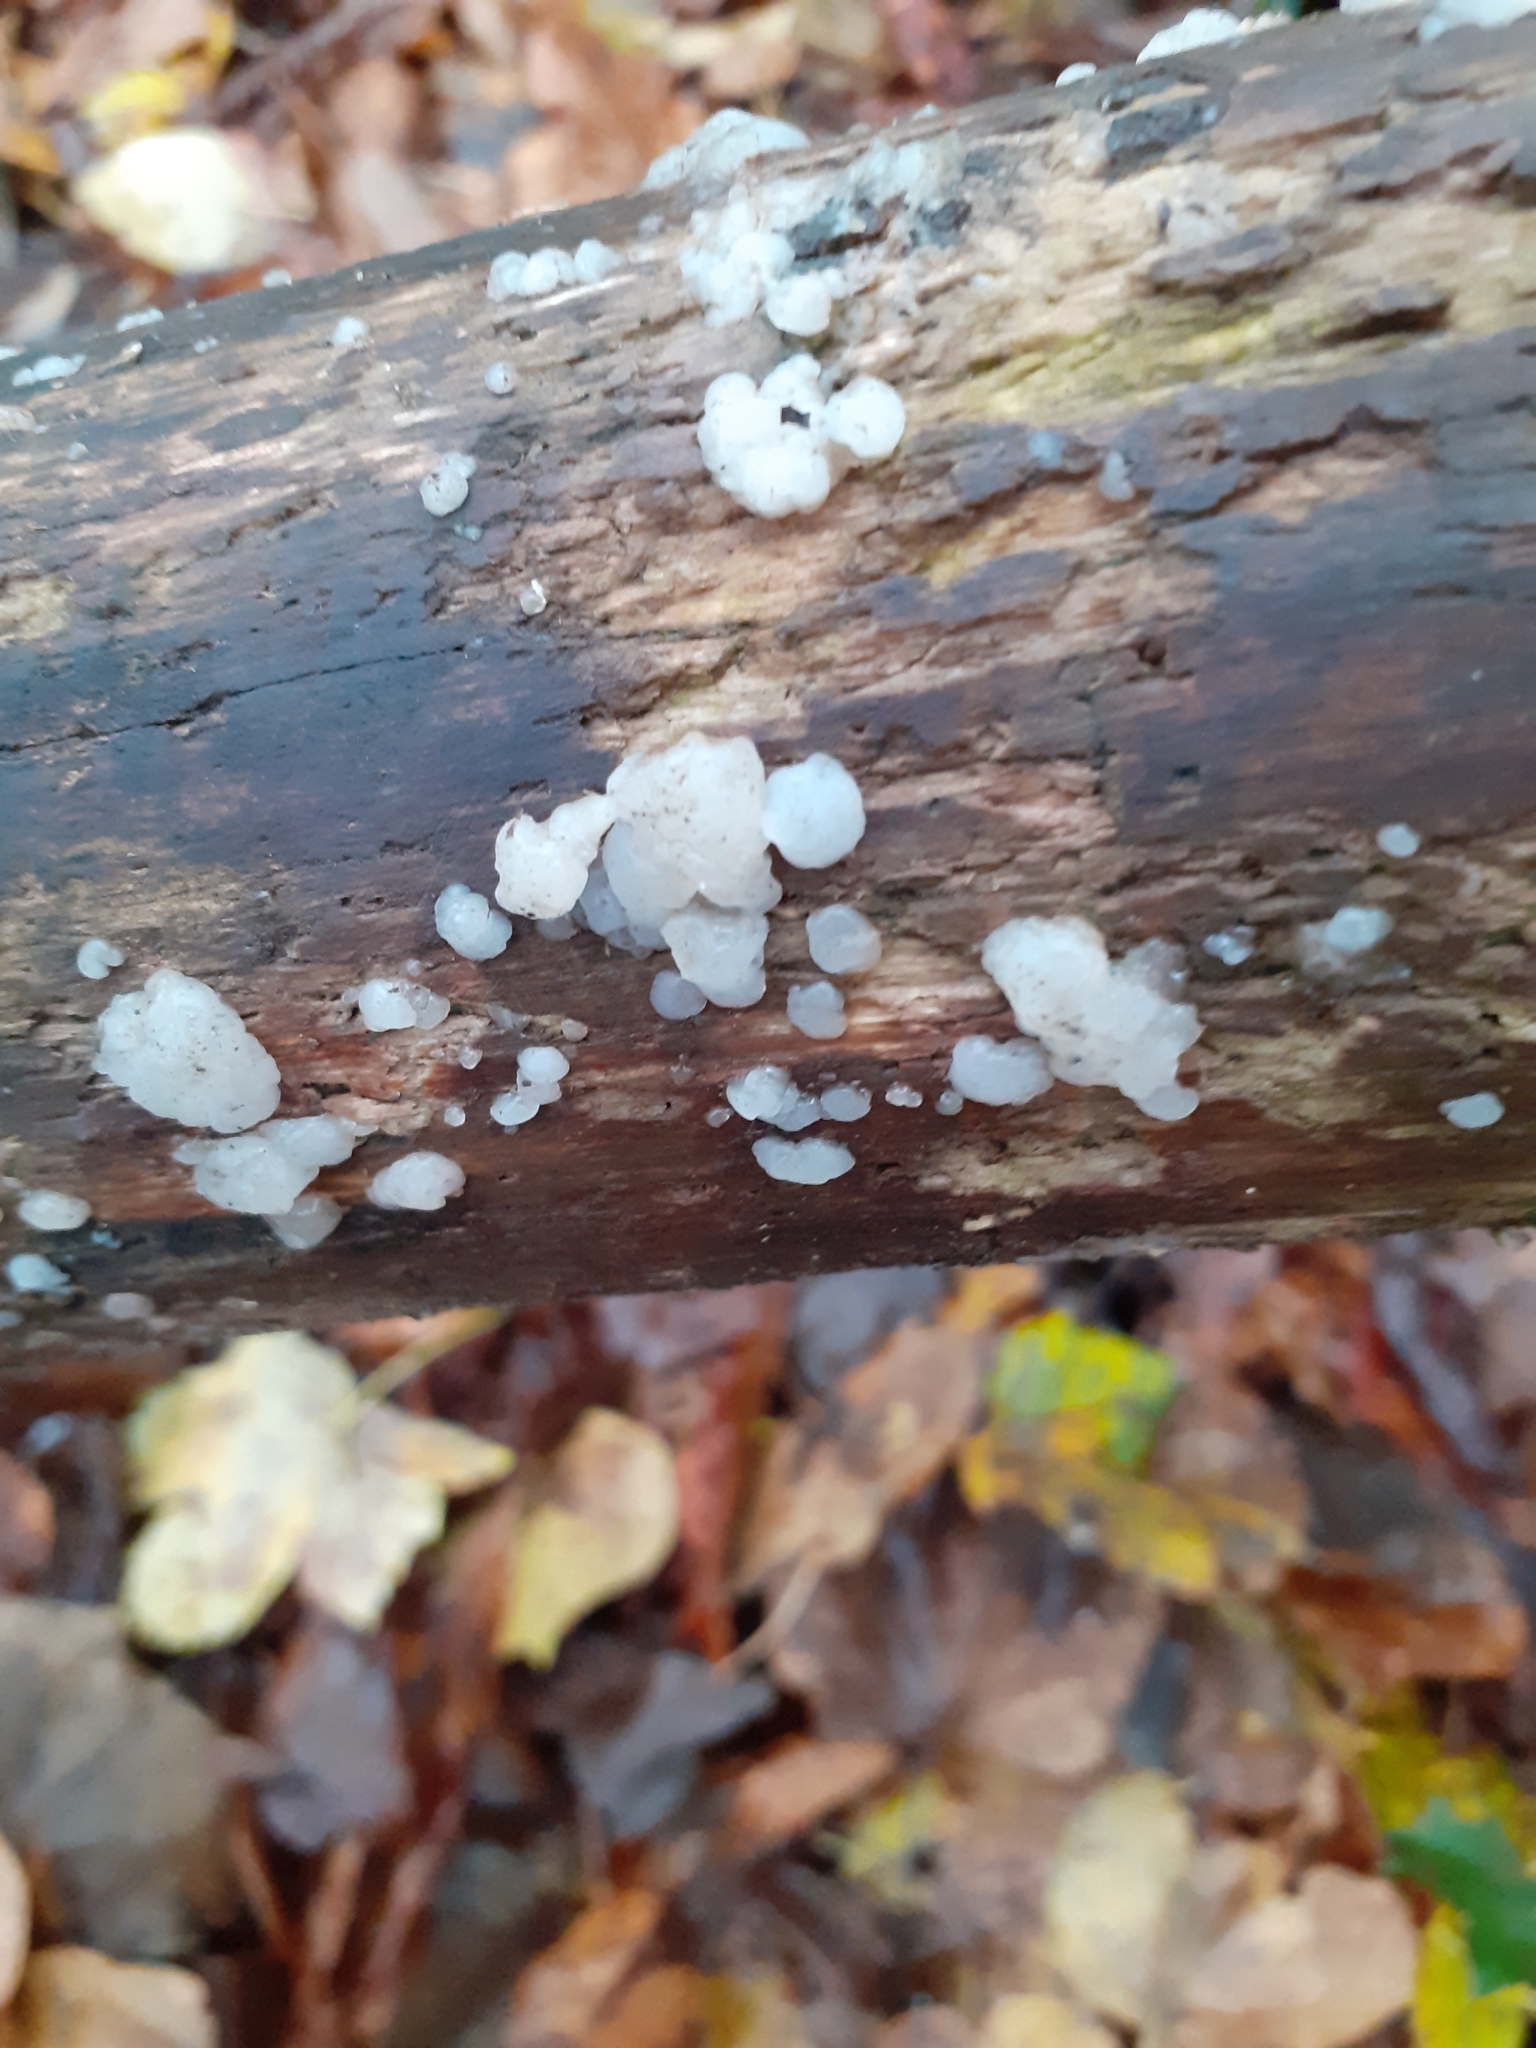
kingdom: Fungi
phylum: Basidiomycota
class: Agaricomycetes
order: Auriculariales
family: Auriculariaceae
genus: Exidia
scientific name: Exidia thuretiana
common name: White brain
